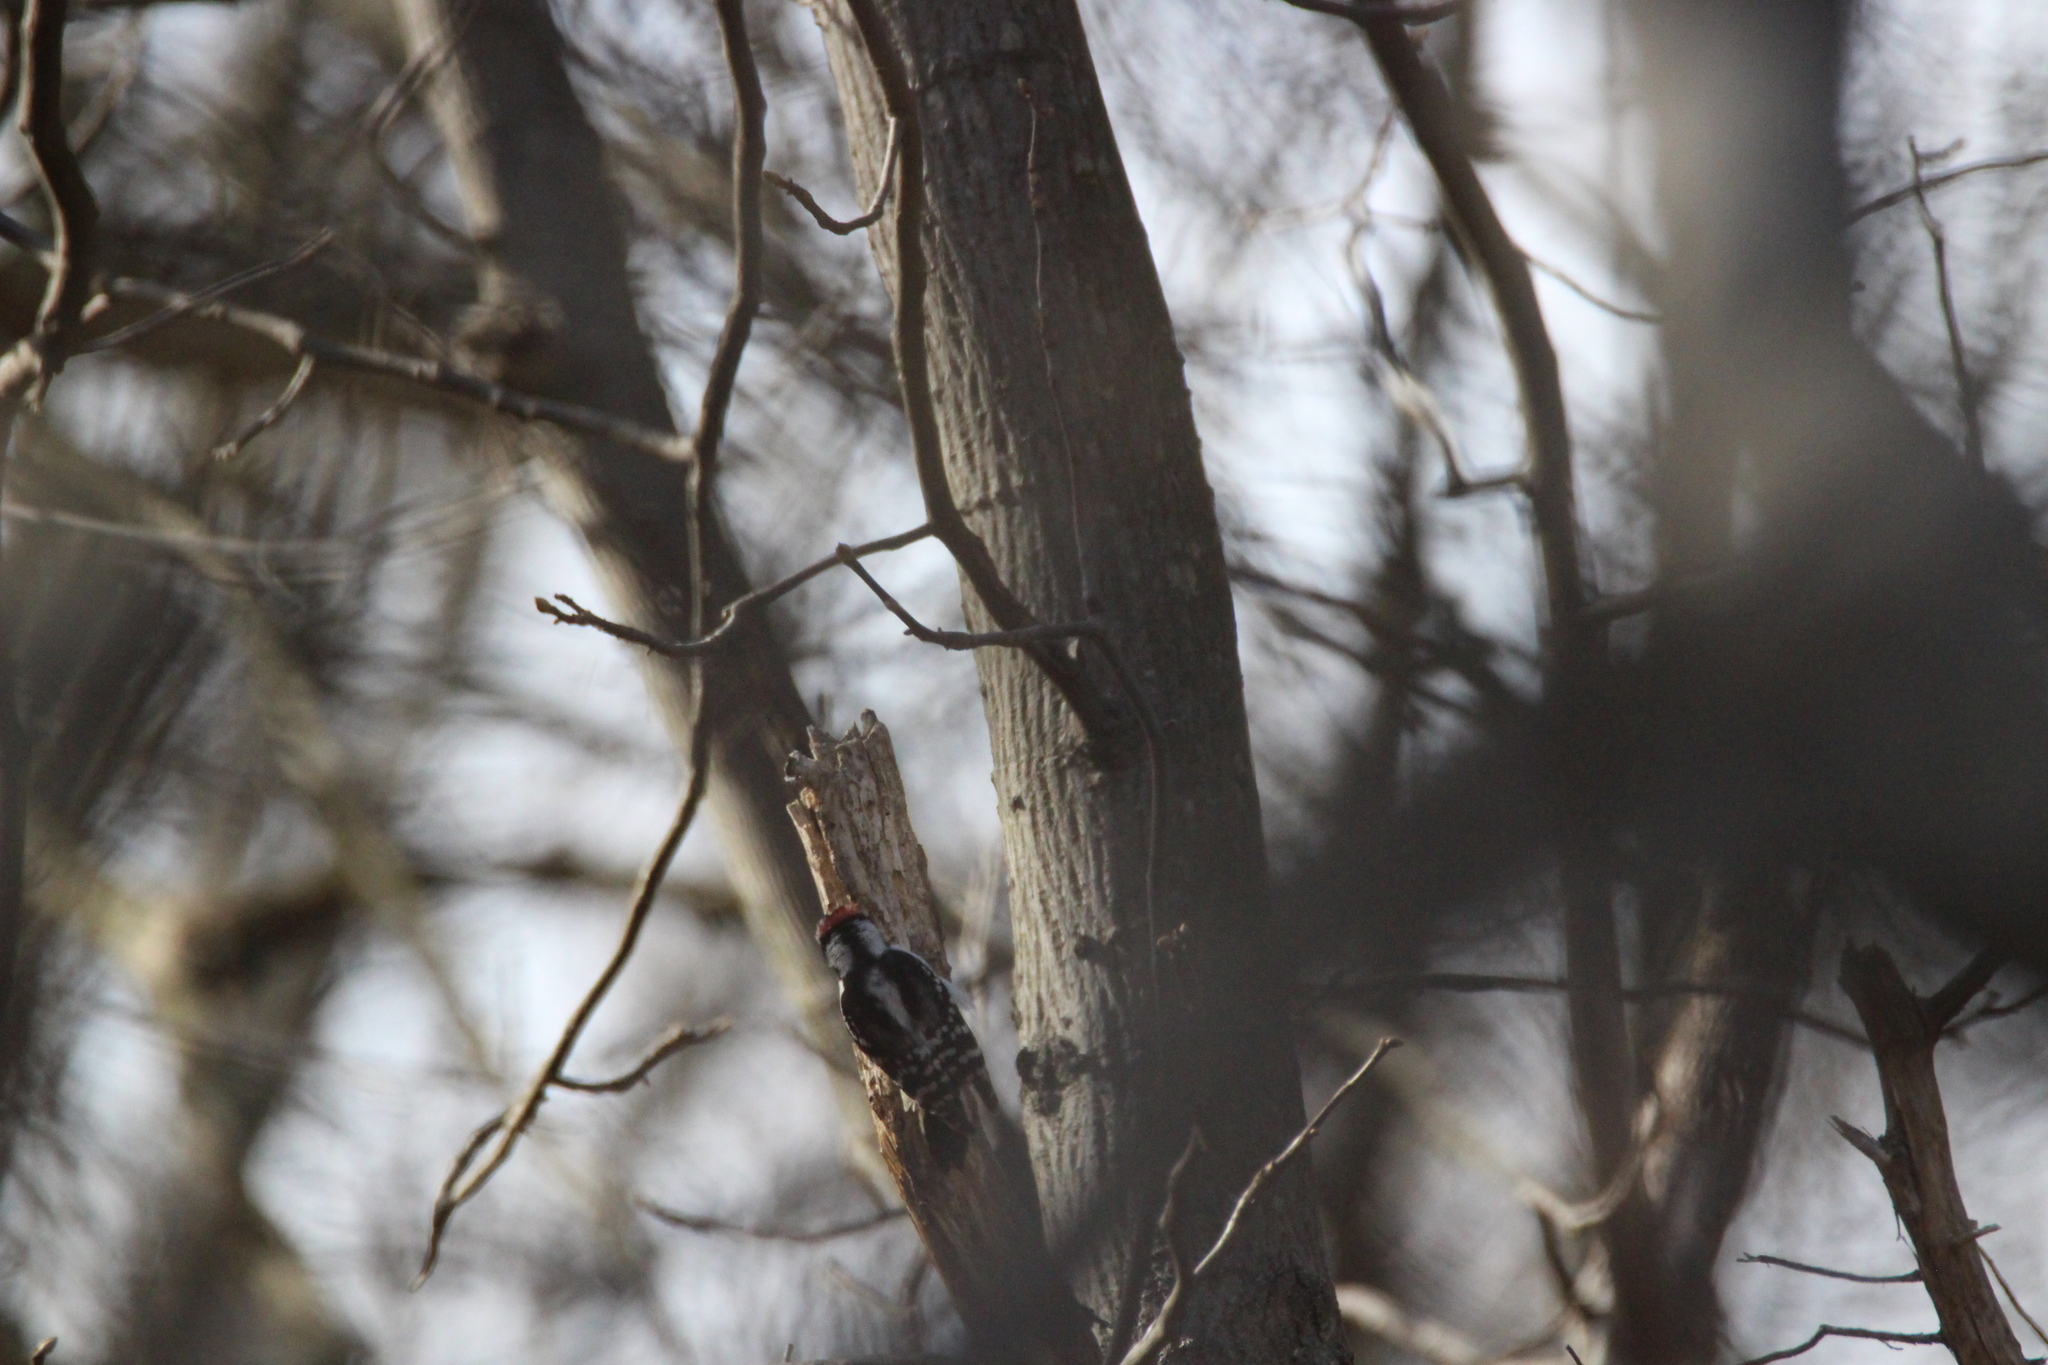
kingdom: Animalia
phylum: Chordata
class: Aves
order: Piciformes
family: Picidae
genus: Dryobates
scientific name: Dryobates pubescens
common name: Downy woodpecker
